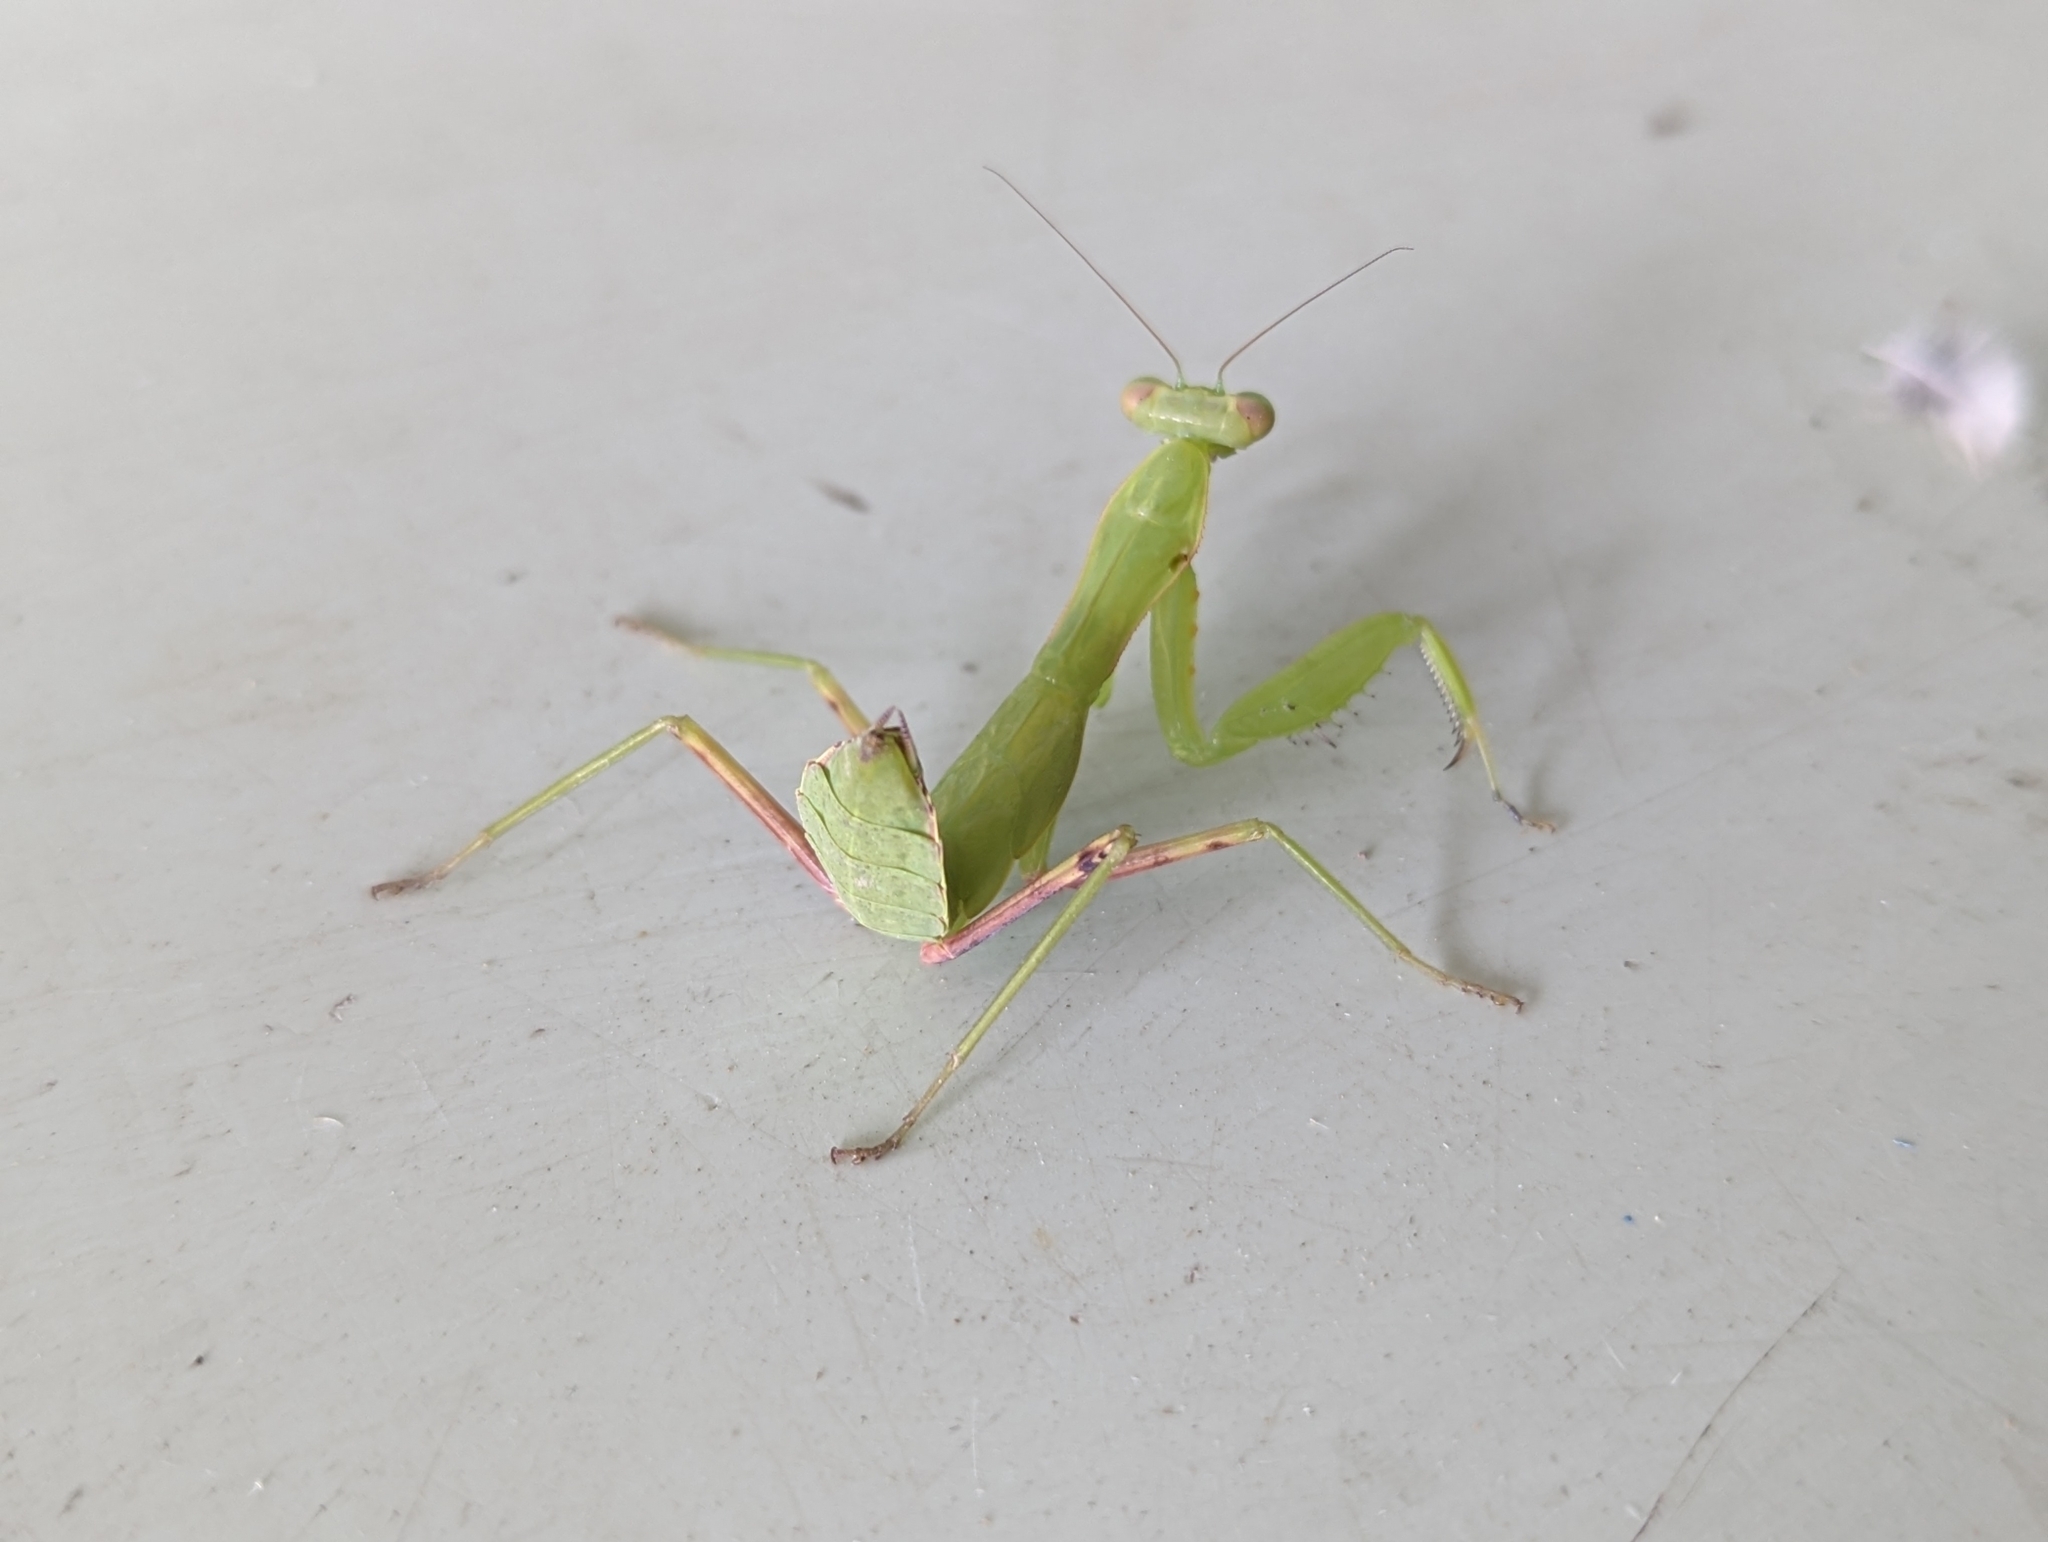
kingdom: Animalia
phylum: Arthropoda
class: Insecta
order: Mantodea
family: Mantidae
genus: Hierodula
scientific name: Hierodula patellifera
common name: Asian mantis
